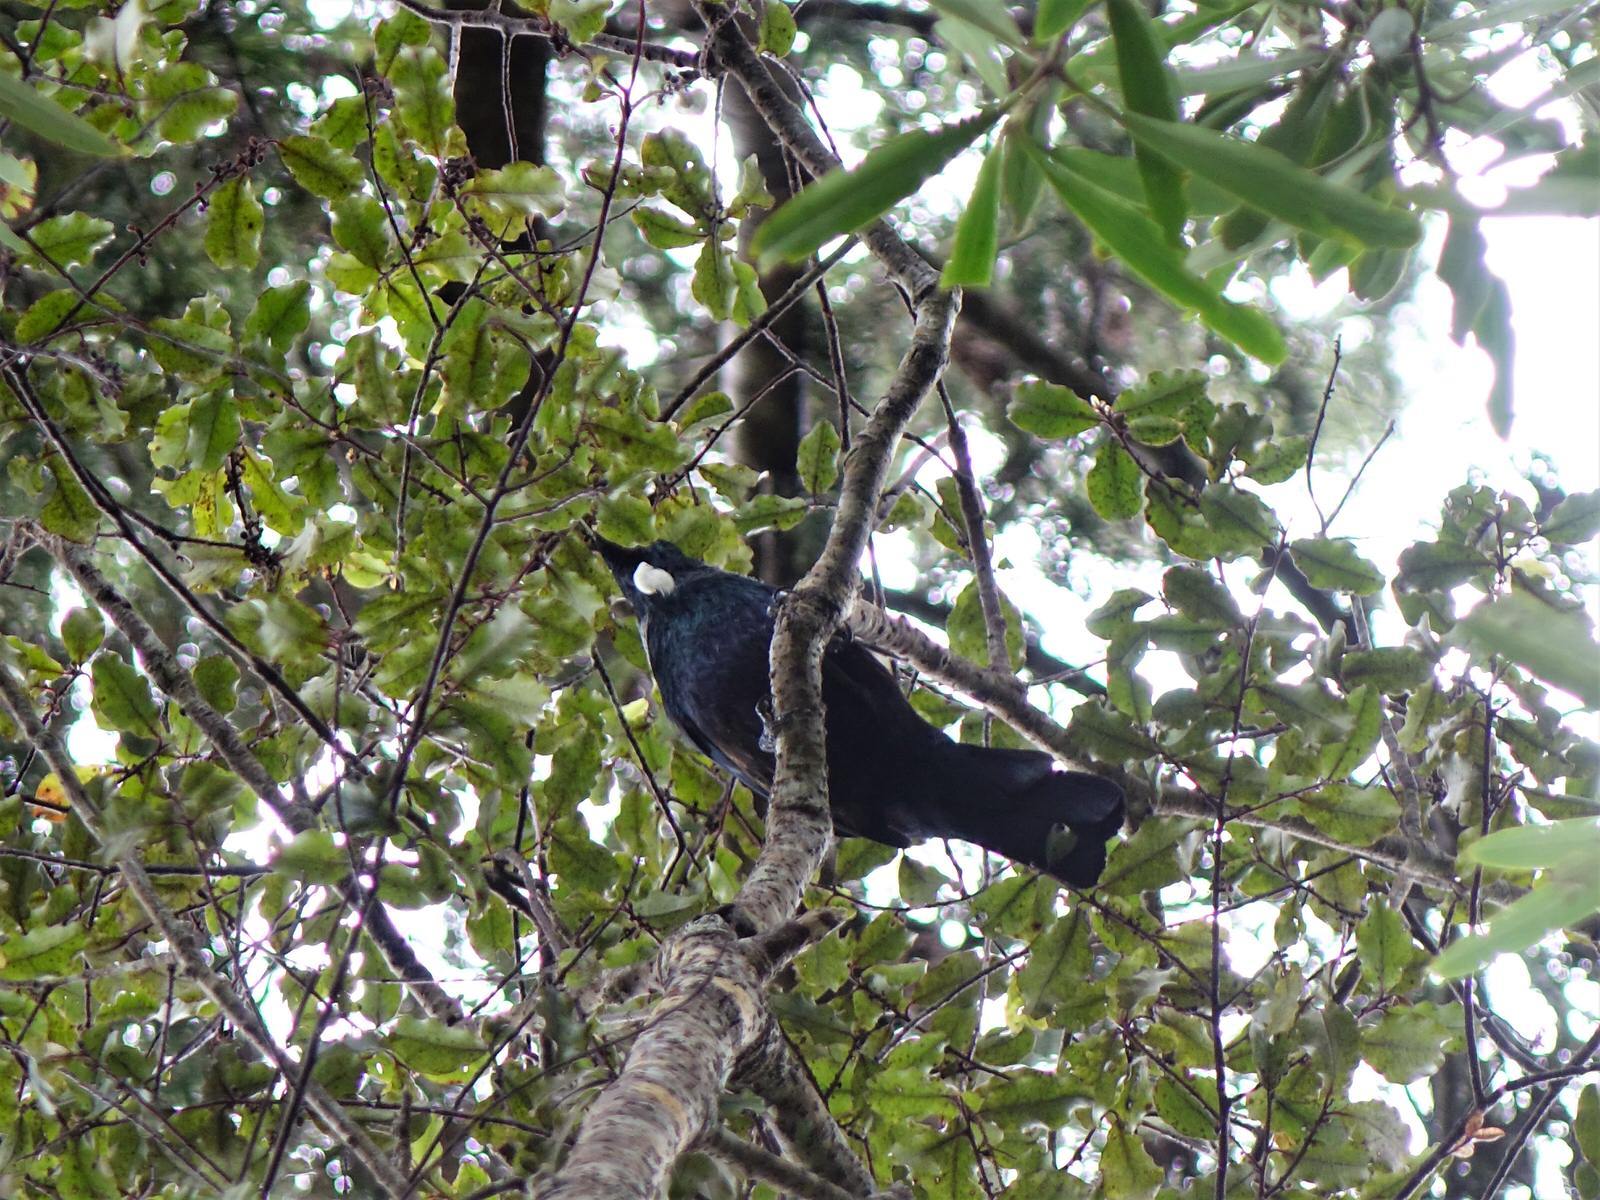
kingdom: Animalia
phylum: Chordata
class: Aves
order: Passeriformes
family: Meliphagidae
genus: Prosthemadera
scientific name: Prosthemadera novaeseelandiae
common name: Tui
